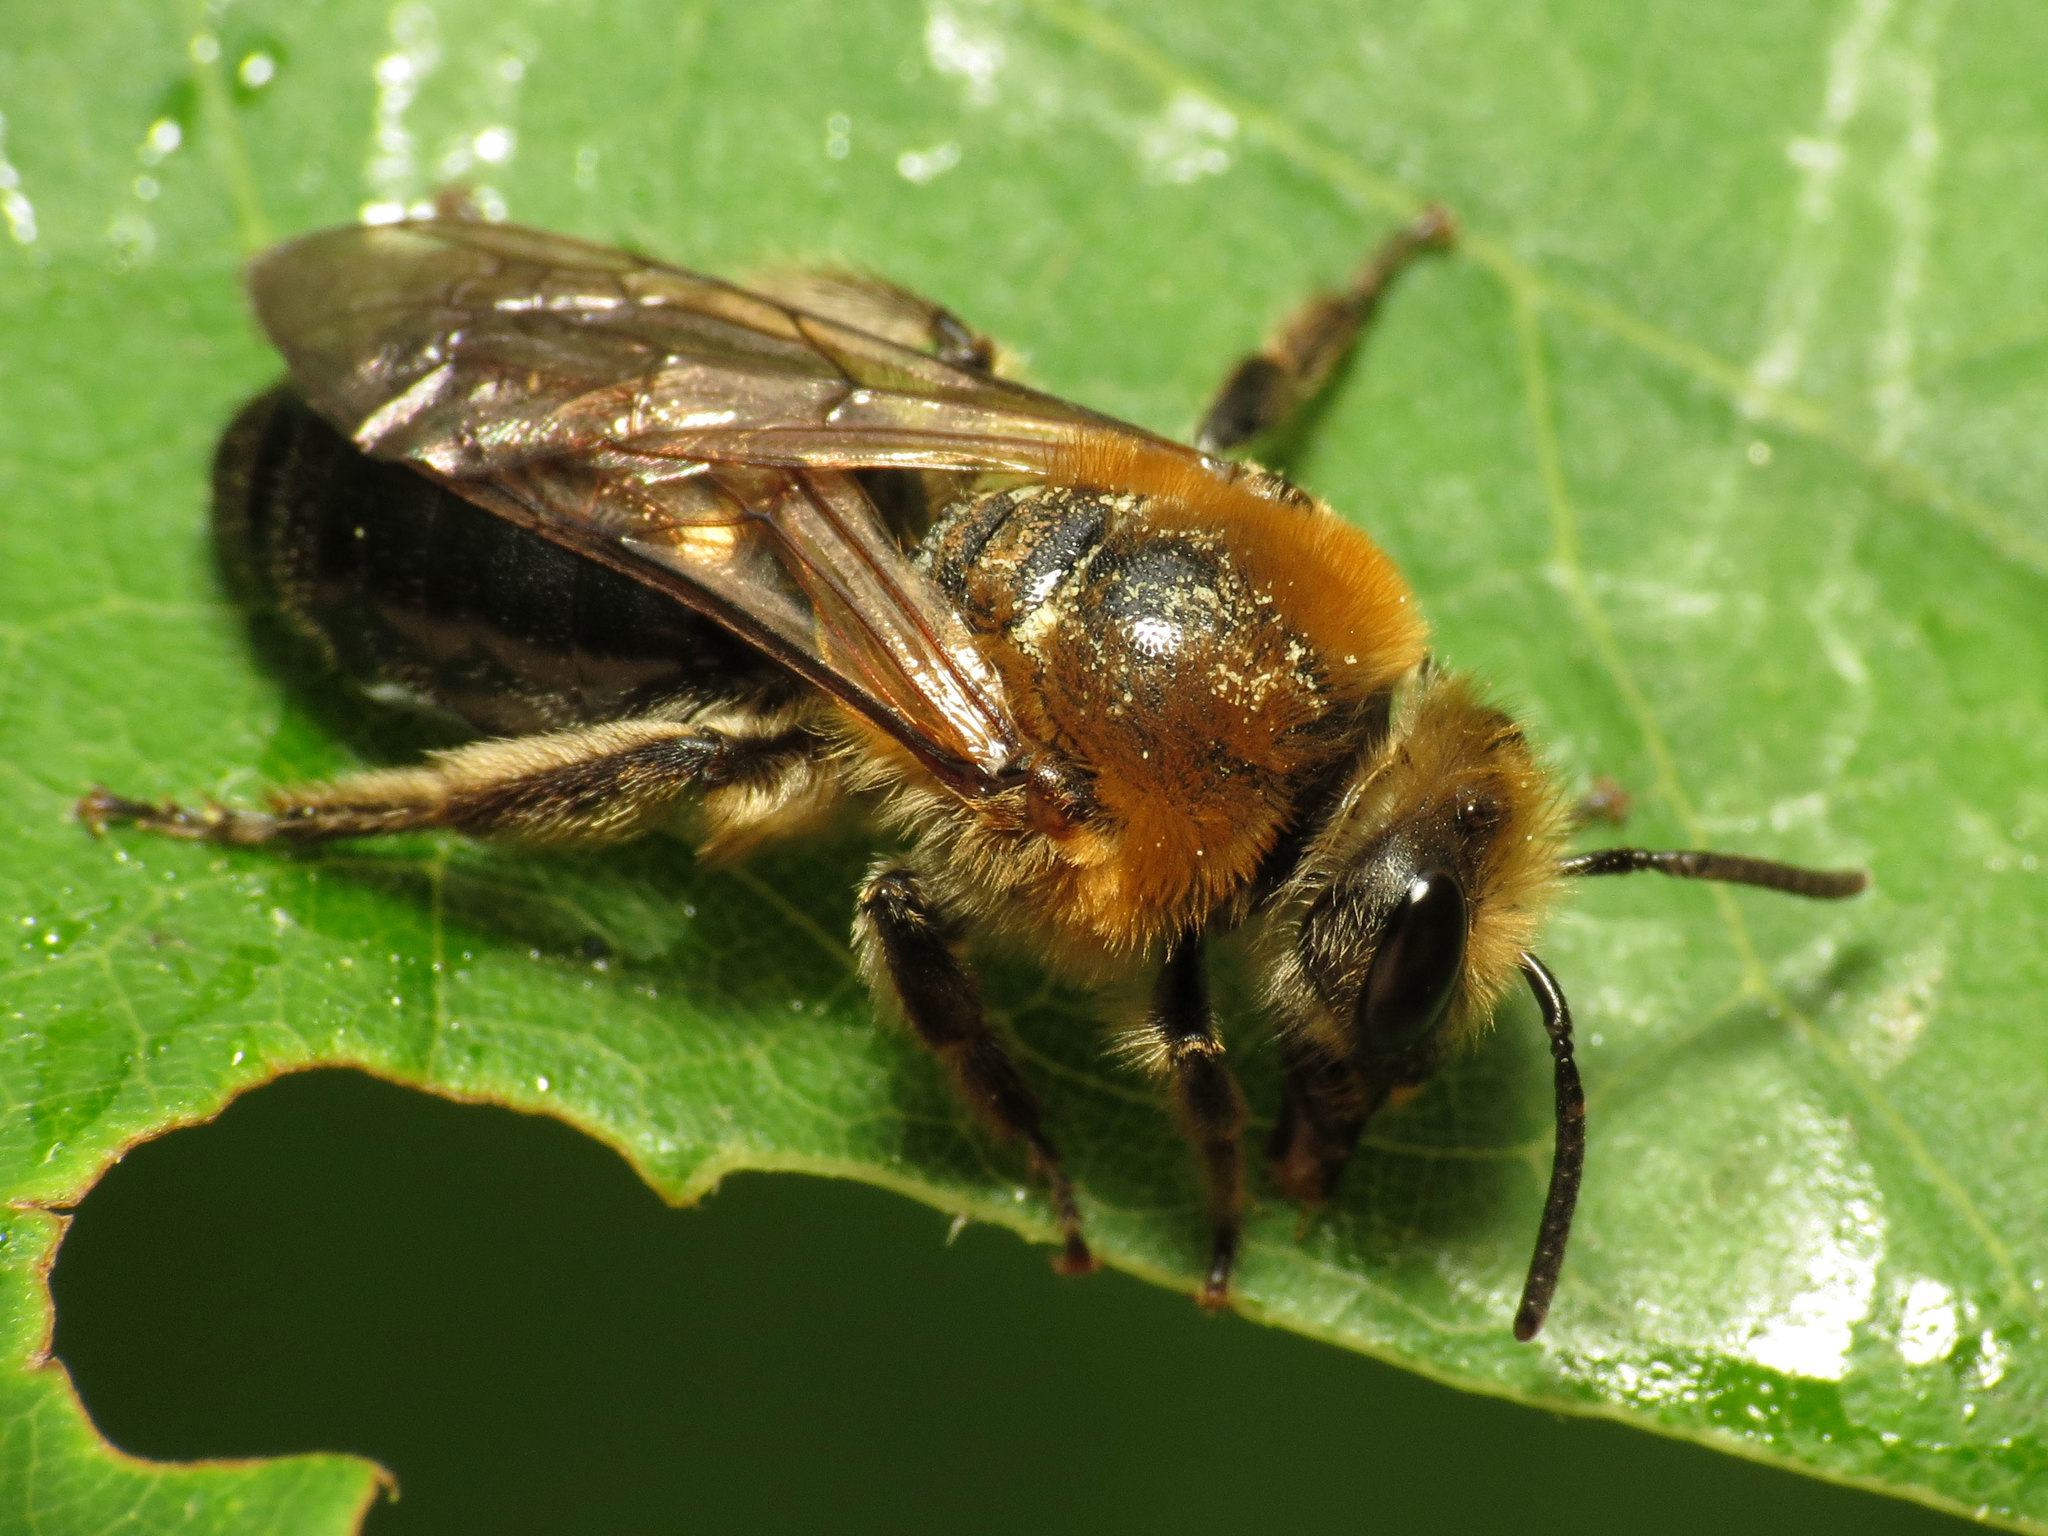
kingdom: Animalia
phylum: Arthropoda
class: Insecta
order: Hymenoptera
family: Colletidae
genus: Colletes
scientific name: Colletes thoracicus
